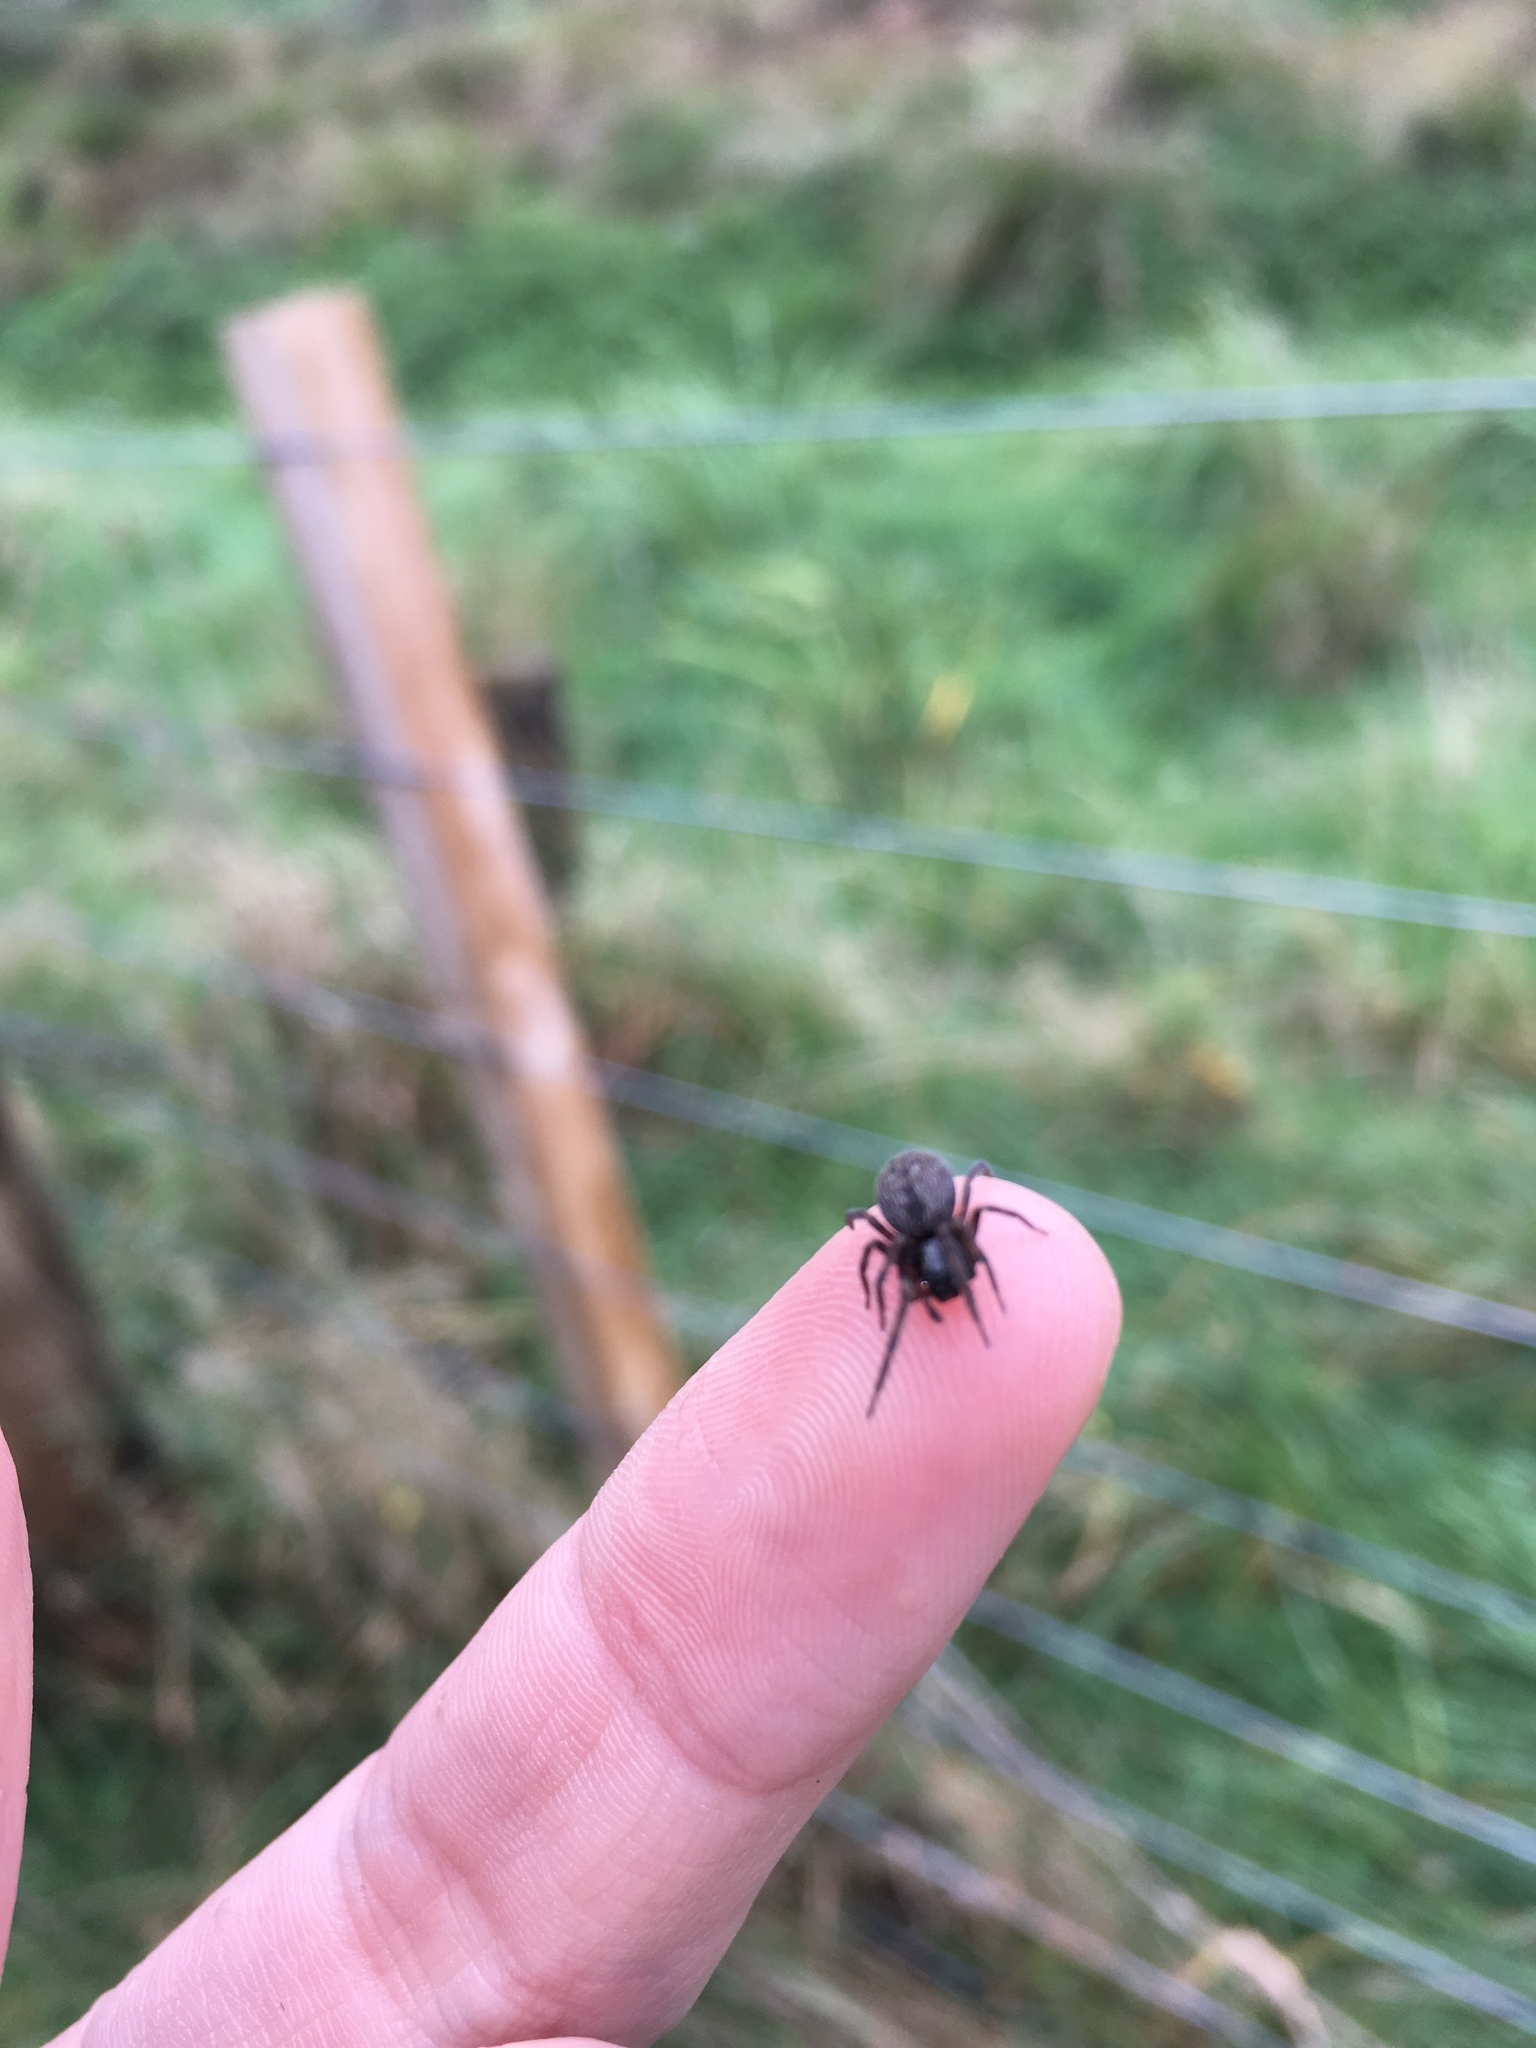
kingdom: Animalia
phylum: Arthropoda
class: Arachnida
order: Araneae
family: Desidae
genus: Badumna
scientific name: Badumna longinqua
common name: Gray house spider
